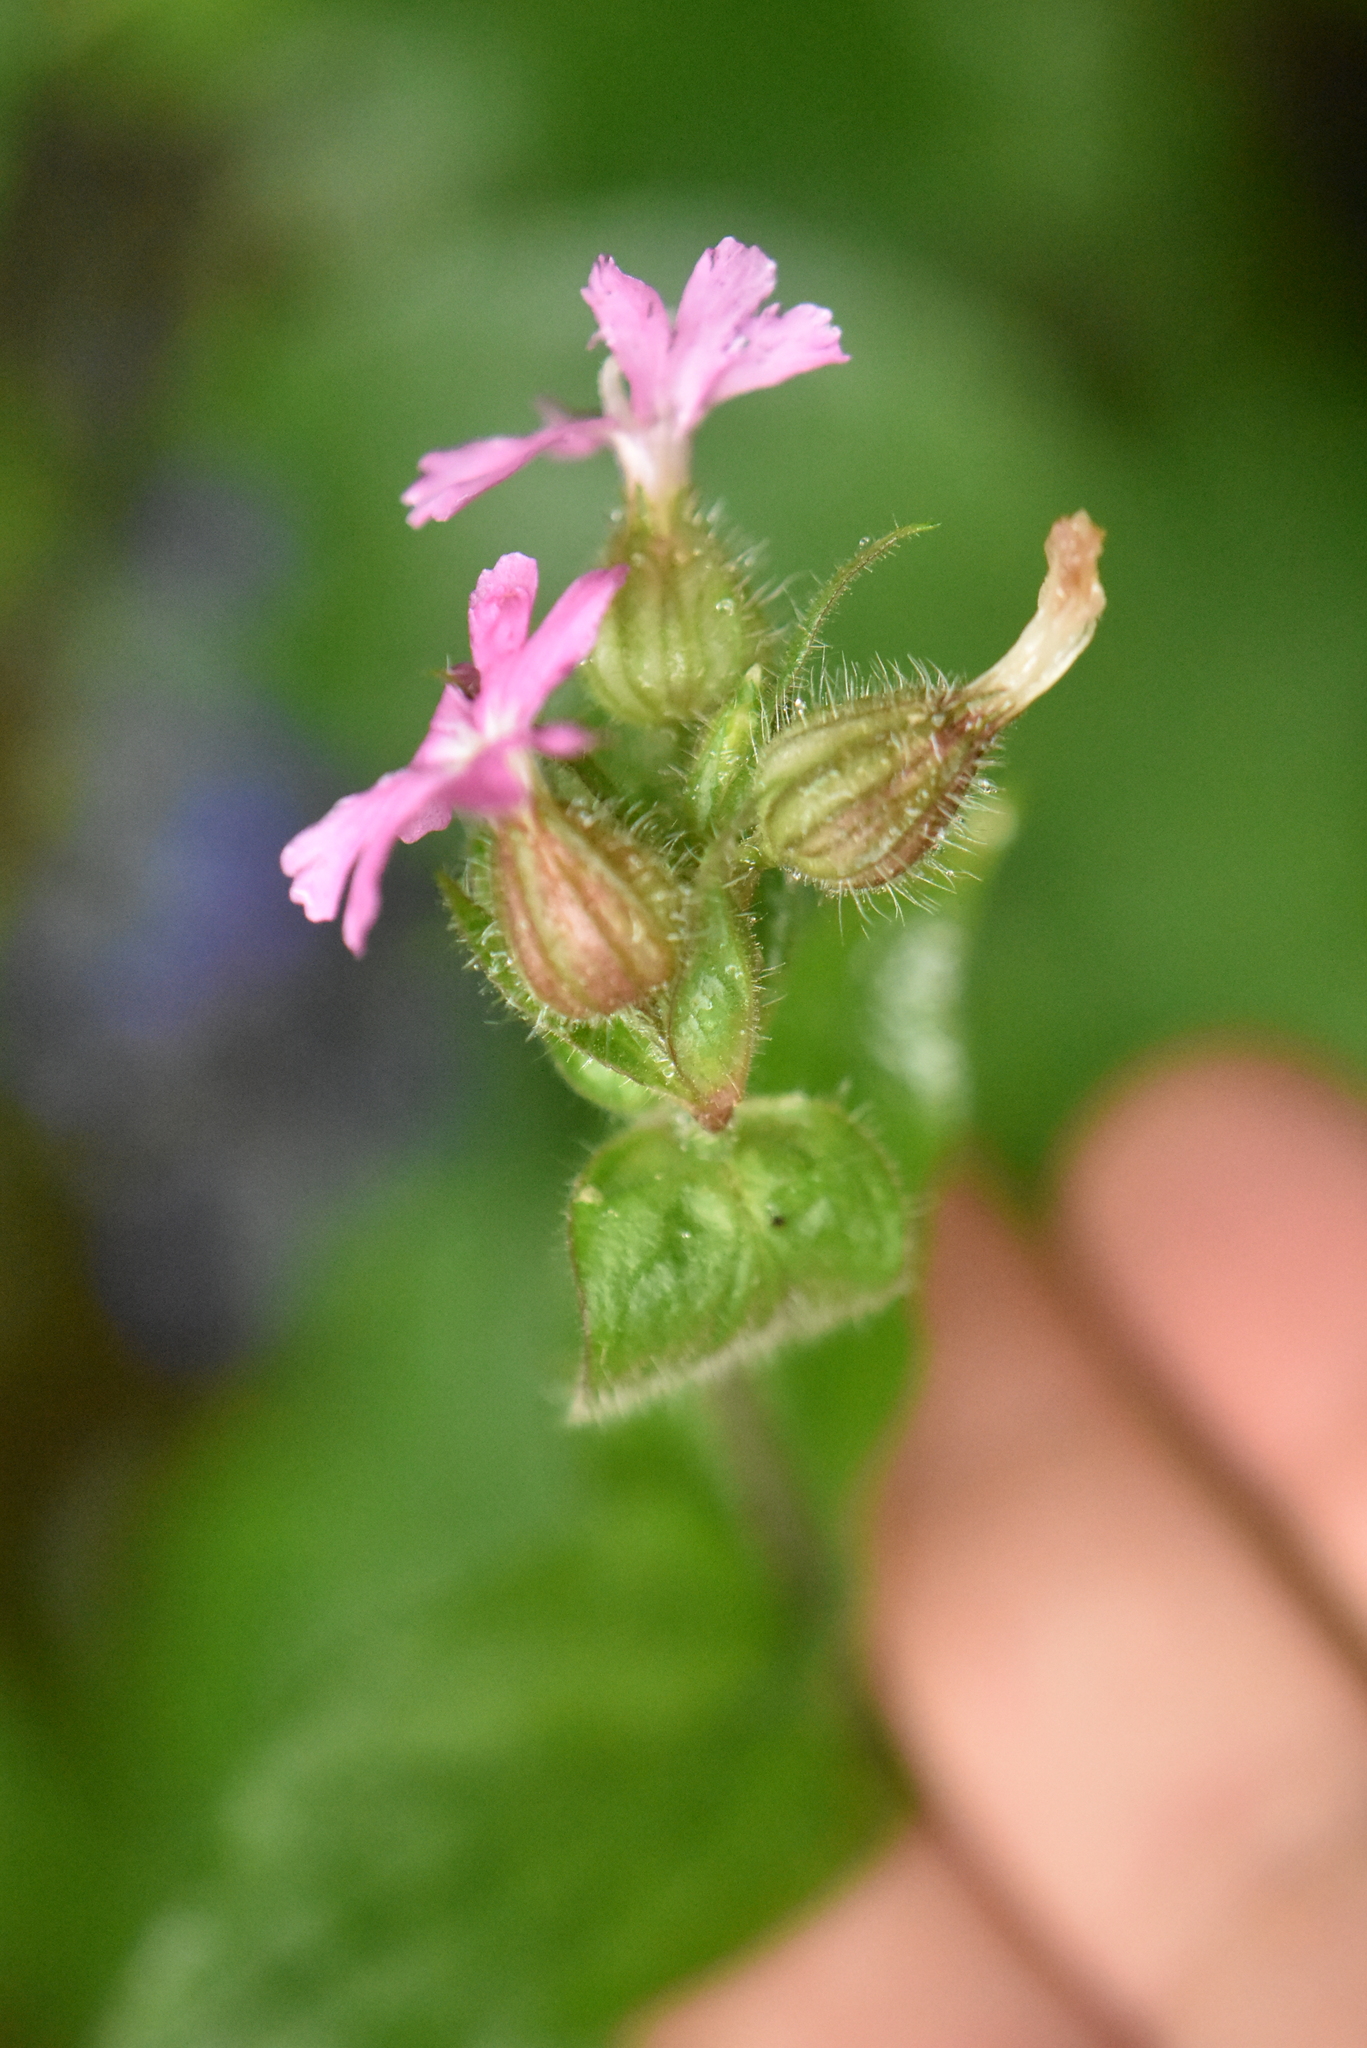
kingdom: Plantae
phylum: Tracheophyta
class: Magnoliopsida
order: Caryophyllales
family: Caryophyllaceae
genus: Silene
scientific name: Silene dioica
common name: Red campion
